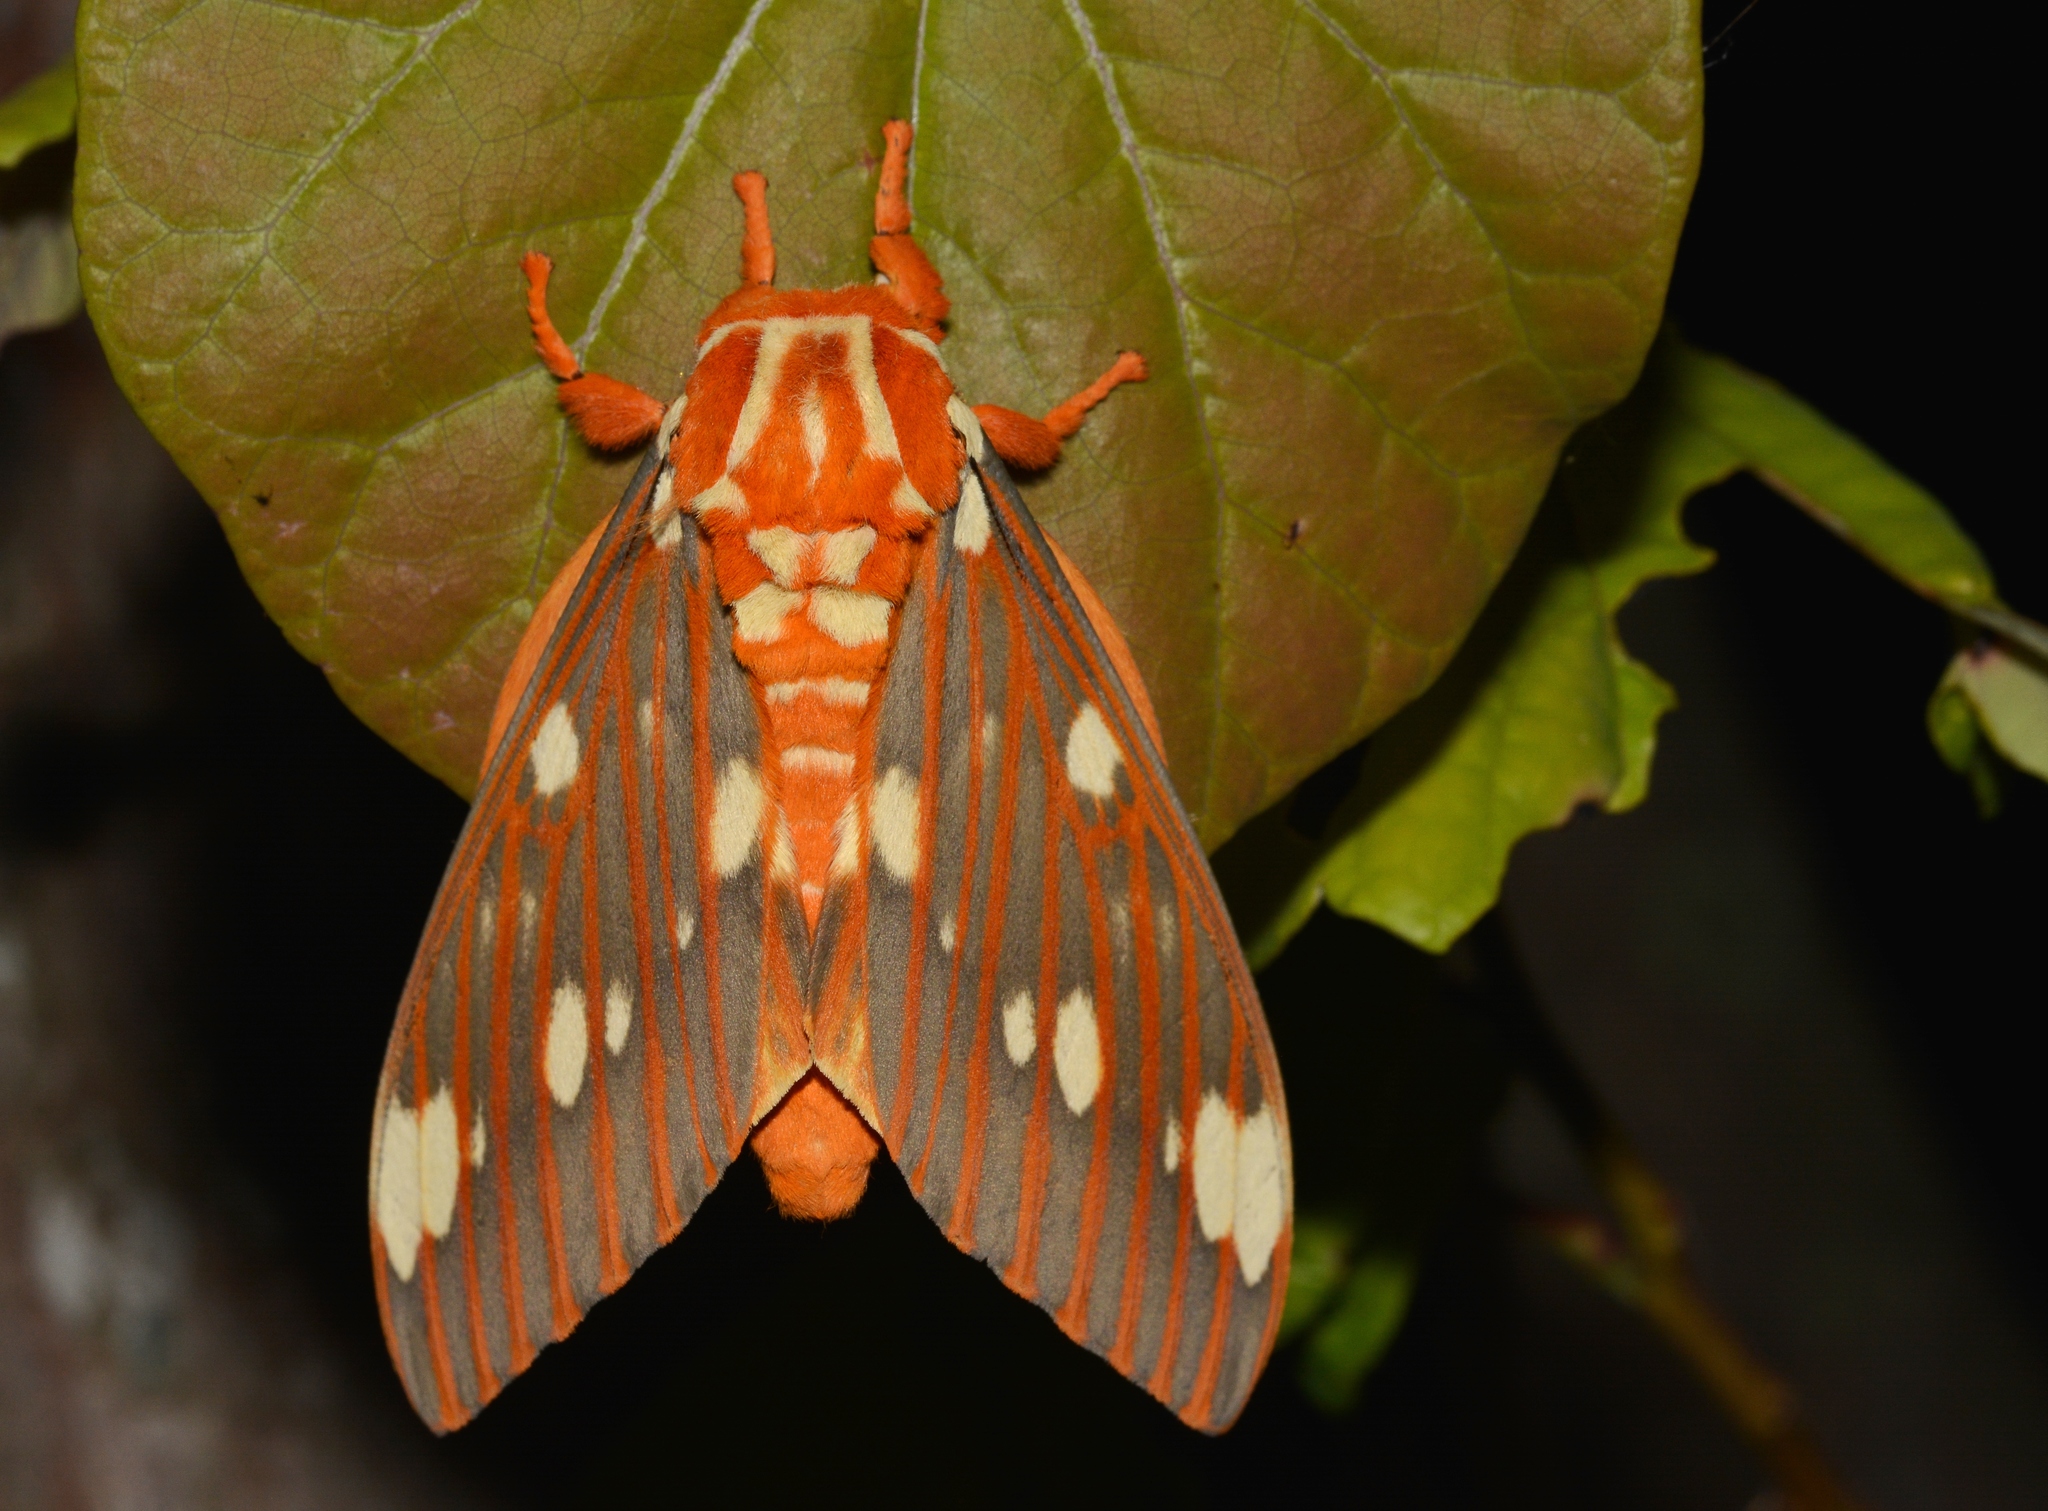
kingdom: Animalia
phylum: Arthropoda
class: Insecta
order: Lepidoptera
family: Saturniidae
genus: Citheronia
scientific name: Citheronia regalis
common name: Hickory horned devil
